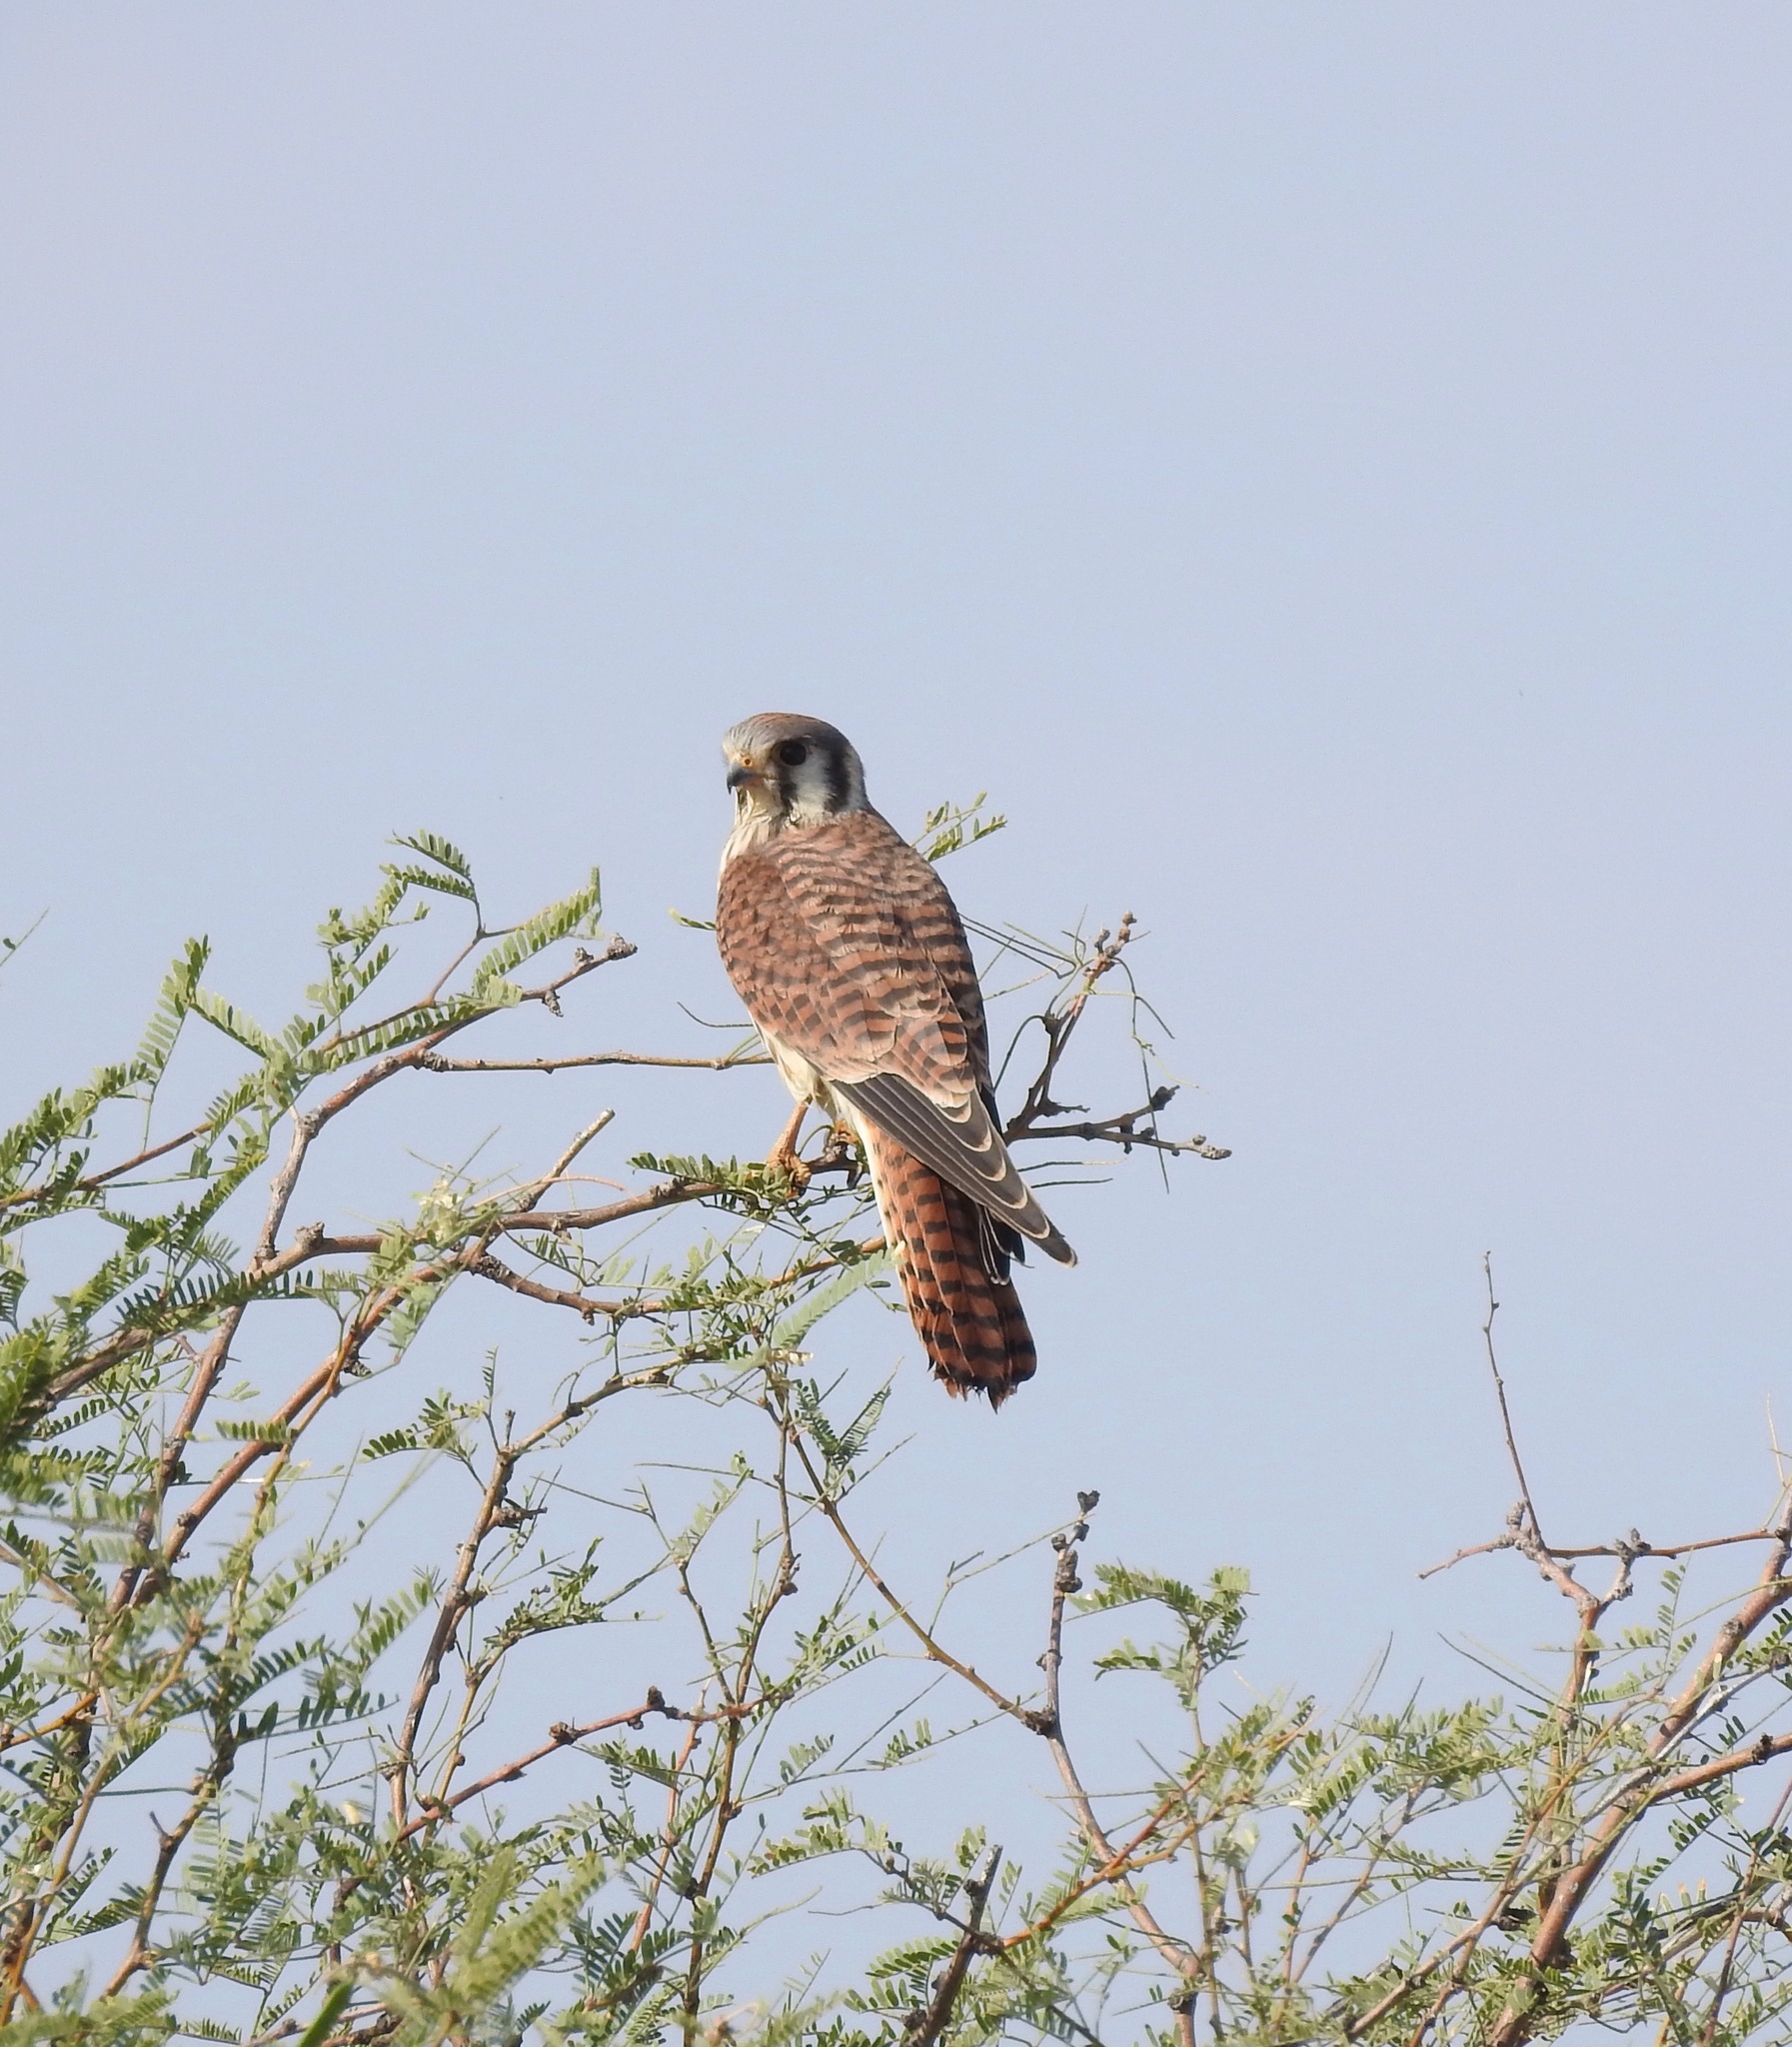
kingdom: Animalia
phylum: Chordata
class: Aves
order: Falconiformes
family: Falconidae
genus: Falco
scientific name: Falco sparverius
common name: American kestrel
